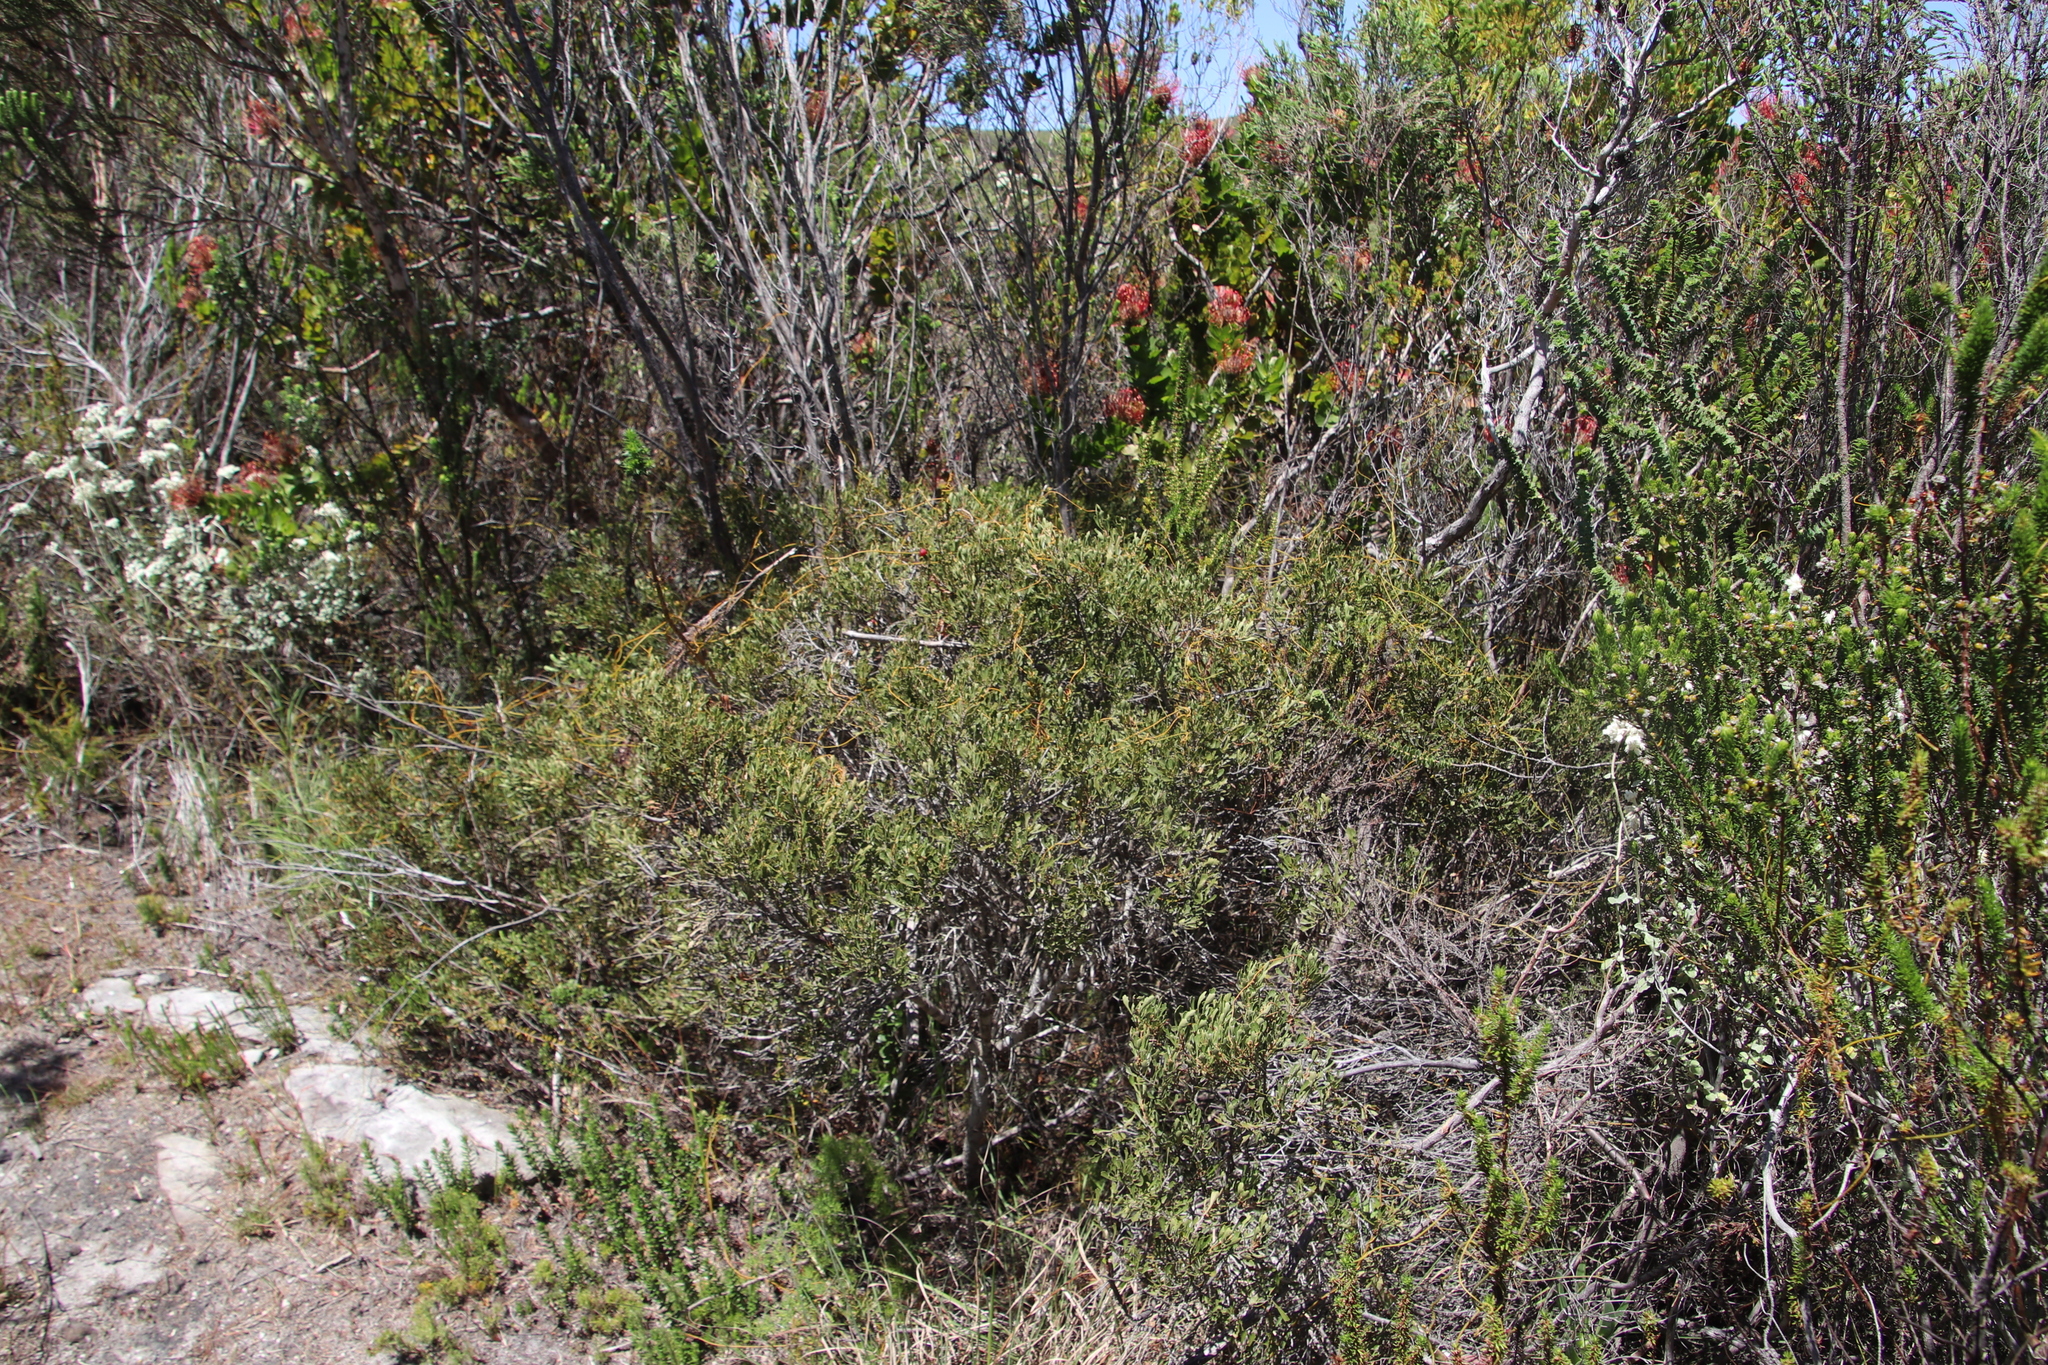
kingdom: Plantae
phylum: Tracheophyta
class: Magnoliopsida
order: Fagales
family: Myricaceae
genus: Morella
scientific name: Morella quercifolia
